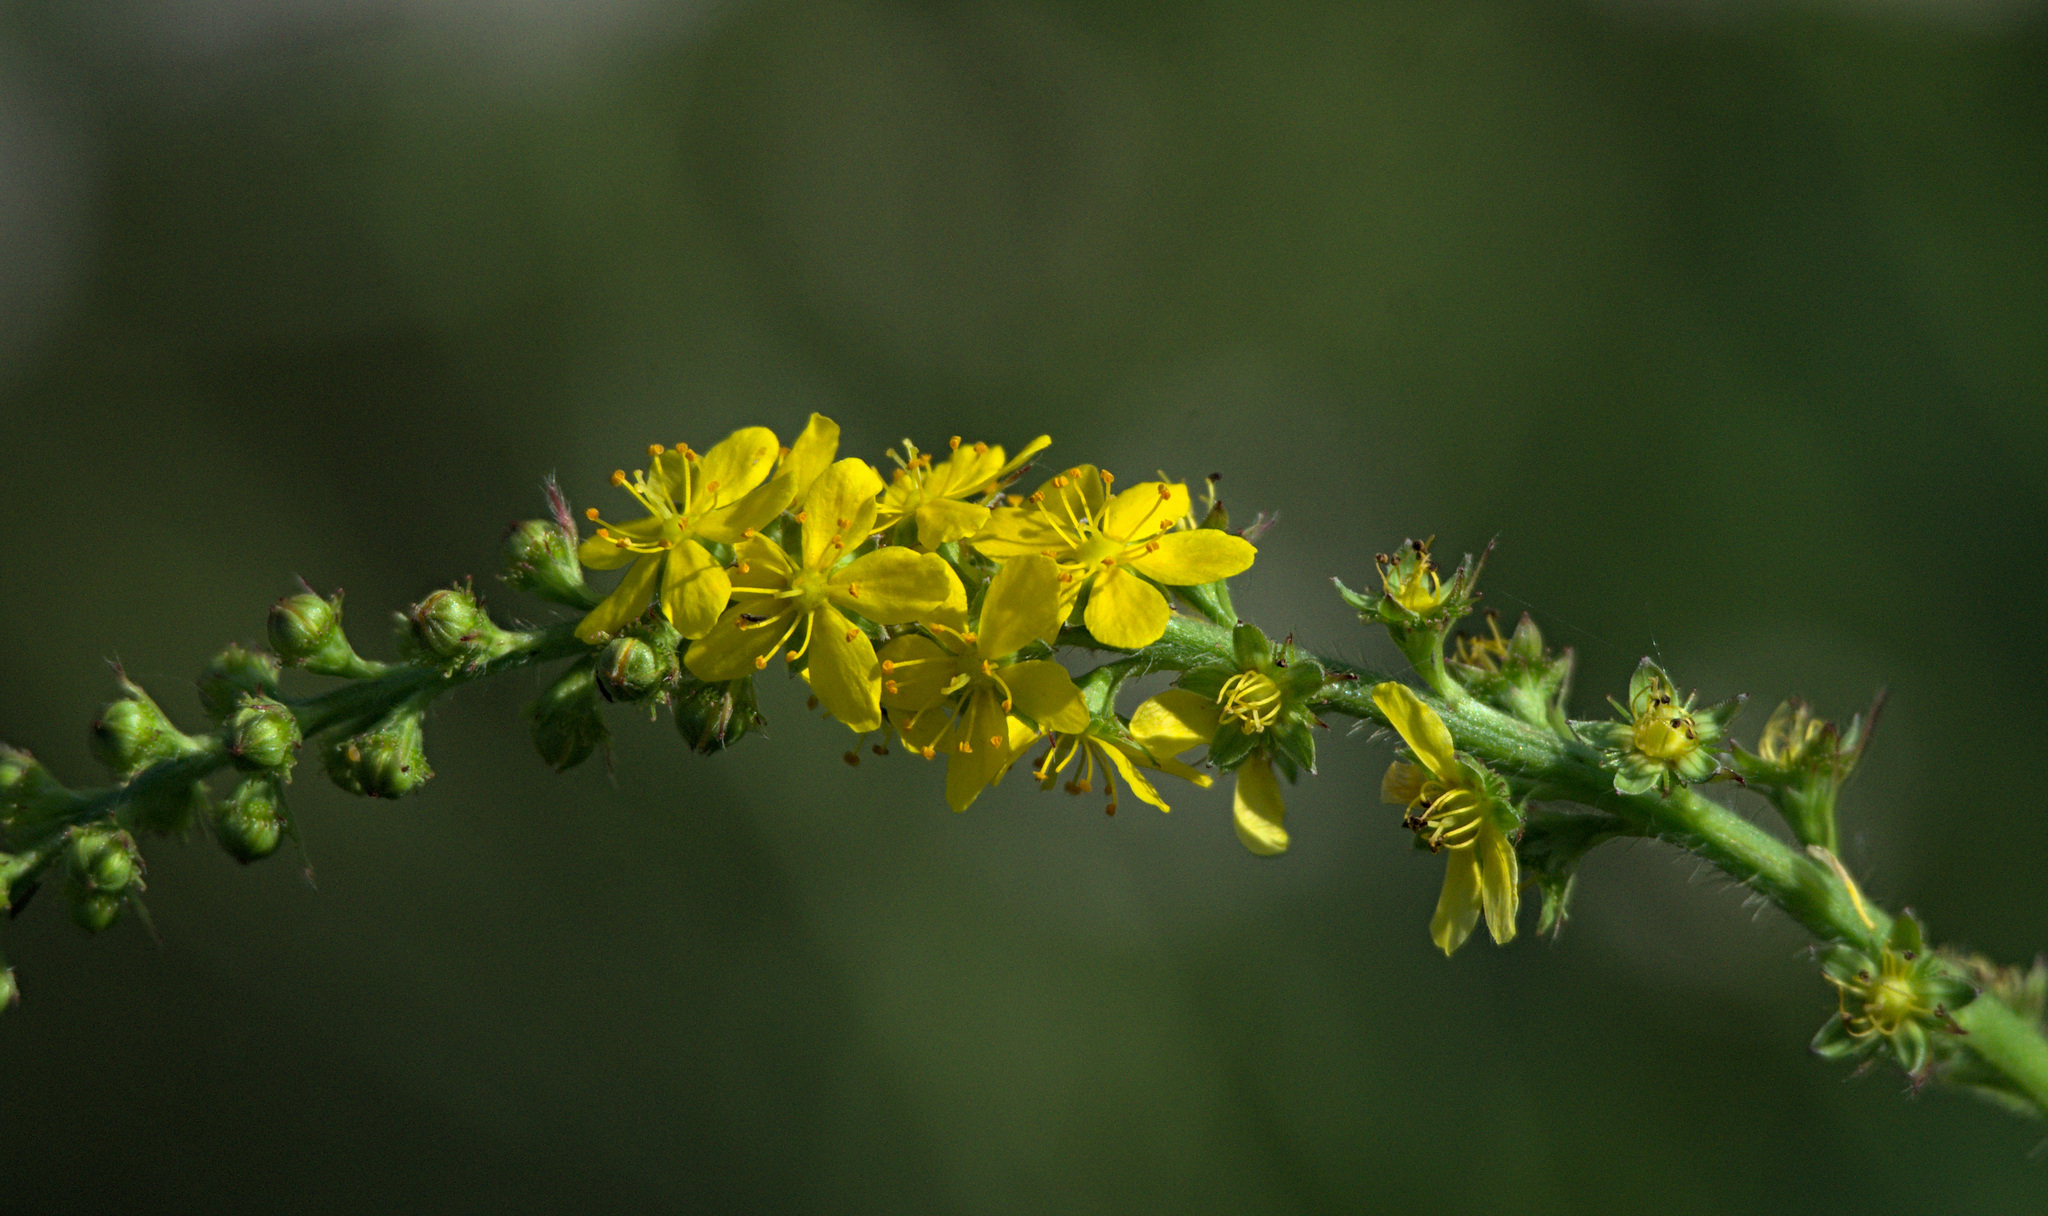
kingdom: Plantae
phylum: Tracheophyta
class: Magnoliopsida
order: Rosales
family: Rosaceae
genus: Agrimonia
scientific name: Agrimonia pilosa
